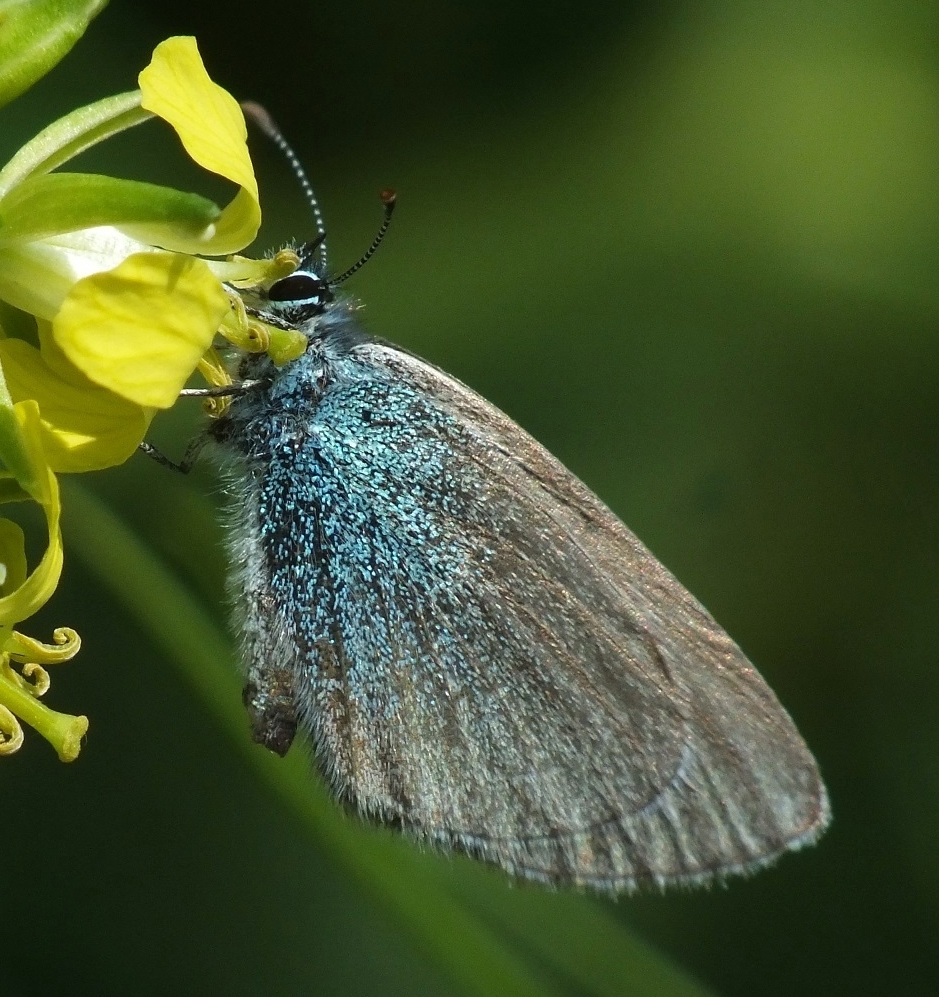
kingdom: Animalia
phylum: Arthropoda
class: Insecta
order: Lepidoptera
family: Lycaenidae
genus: Glaucopsyche
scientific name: Glaucopsyche alexis
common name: Green-underside blue
